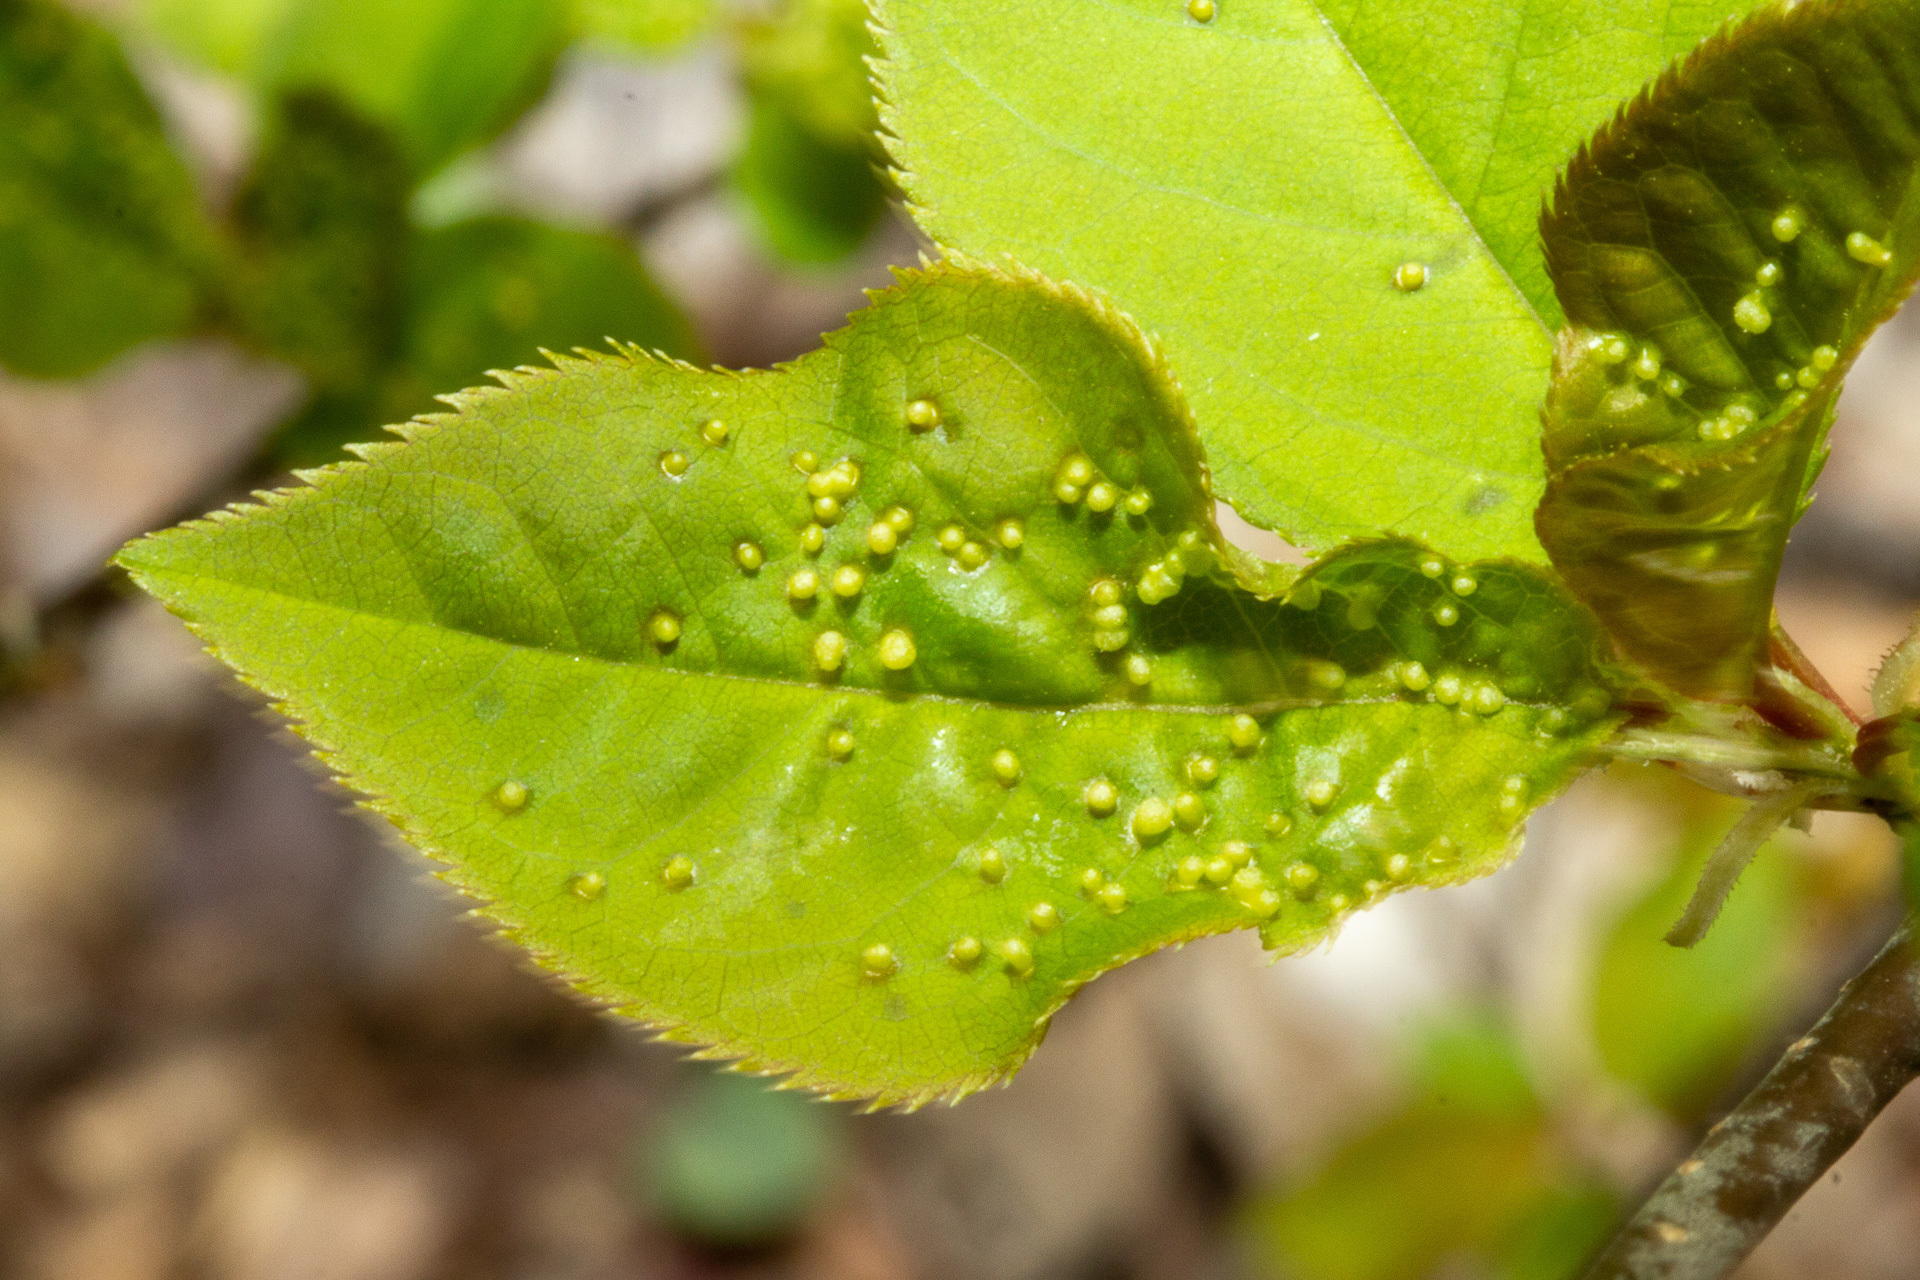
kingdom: Animalia
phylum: Arthropoda
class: Arachnida
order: Trombidiformes
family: Eriophyidae
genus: Eriophyes
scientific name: Eriophyes emarginatae
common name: Plum leaf gall mite
